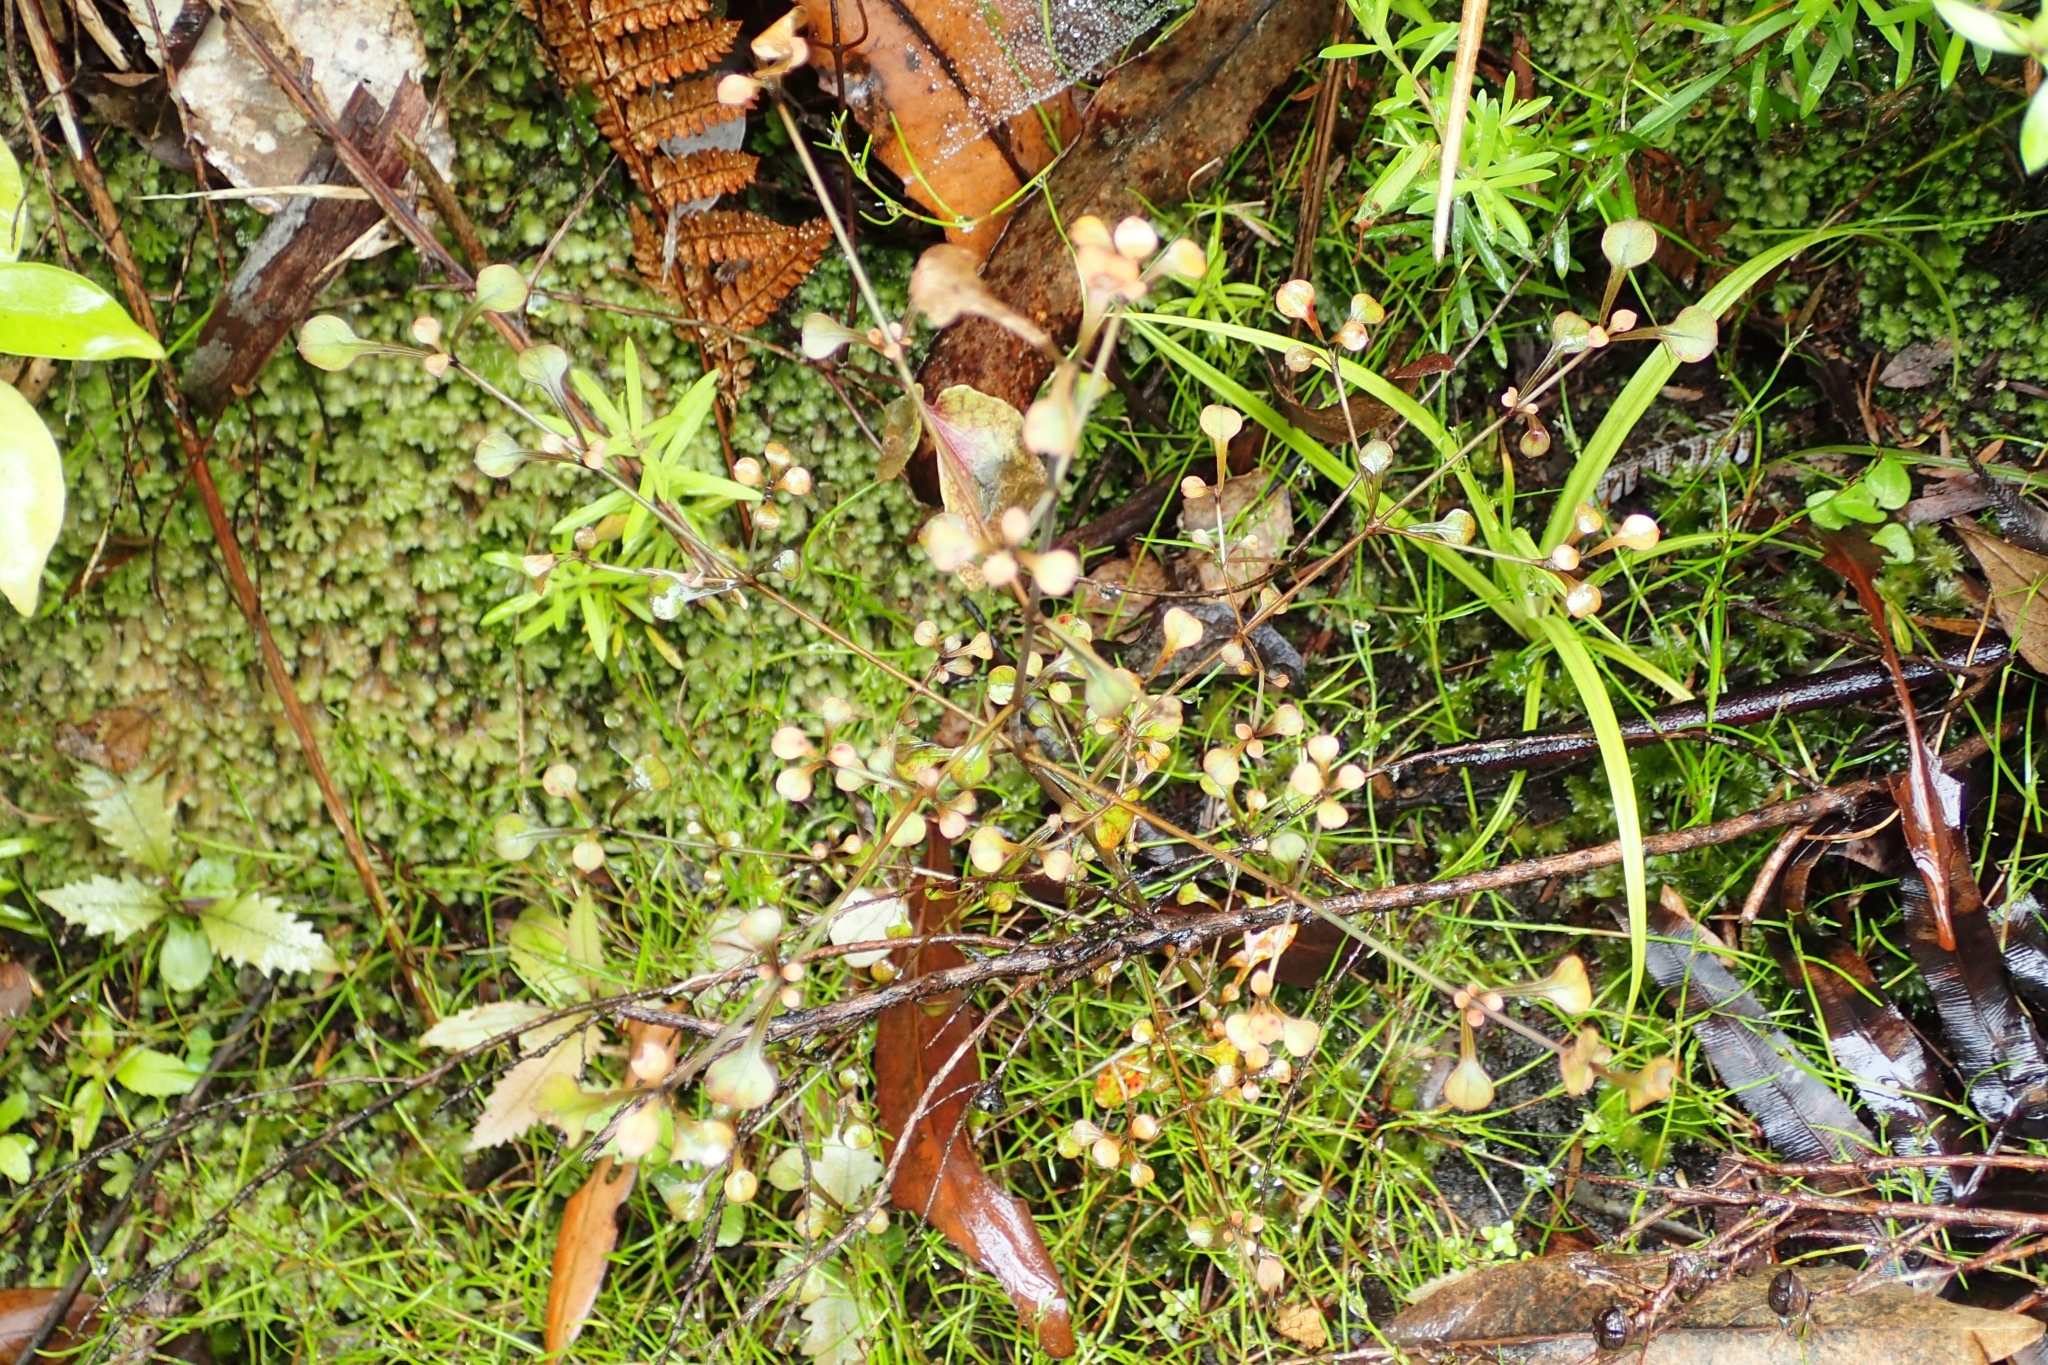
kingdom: Plantae
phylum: Tracheophyta
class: Magnoliopsida
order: Gentianales
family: Rubiaceae
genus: Coprosma
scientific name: Coprosma spathulata
